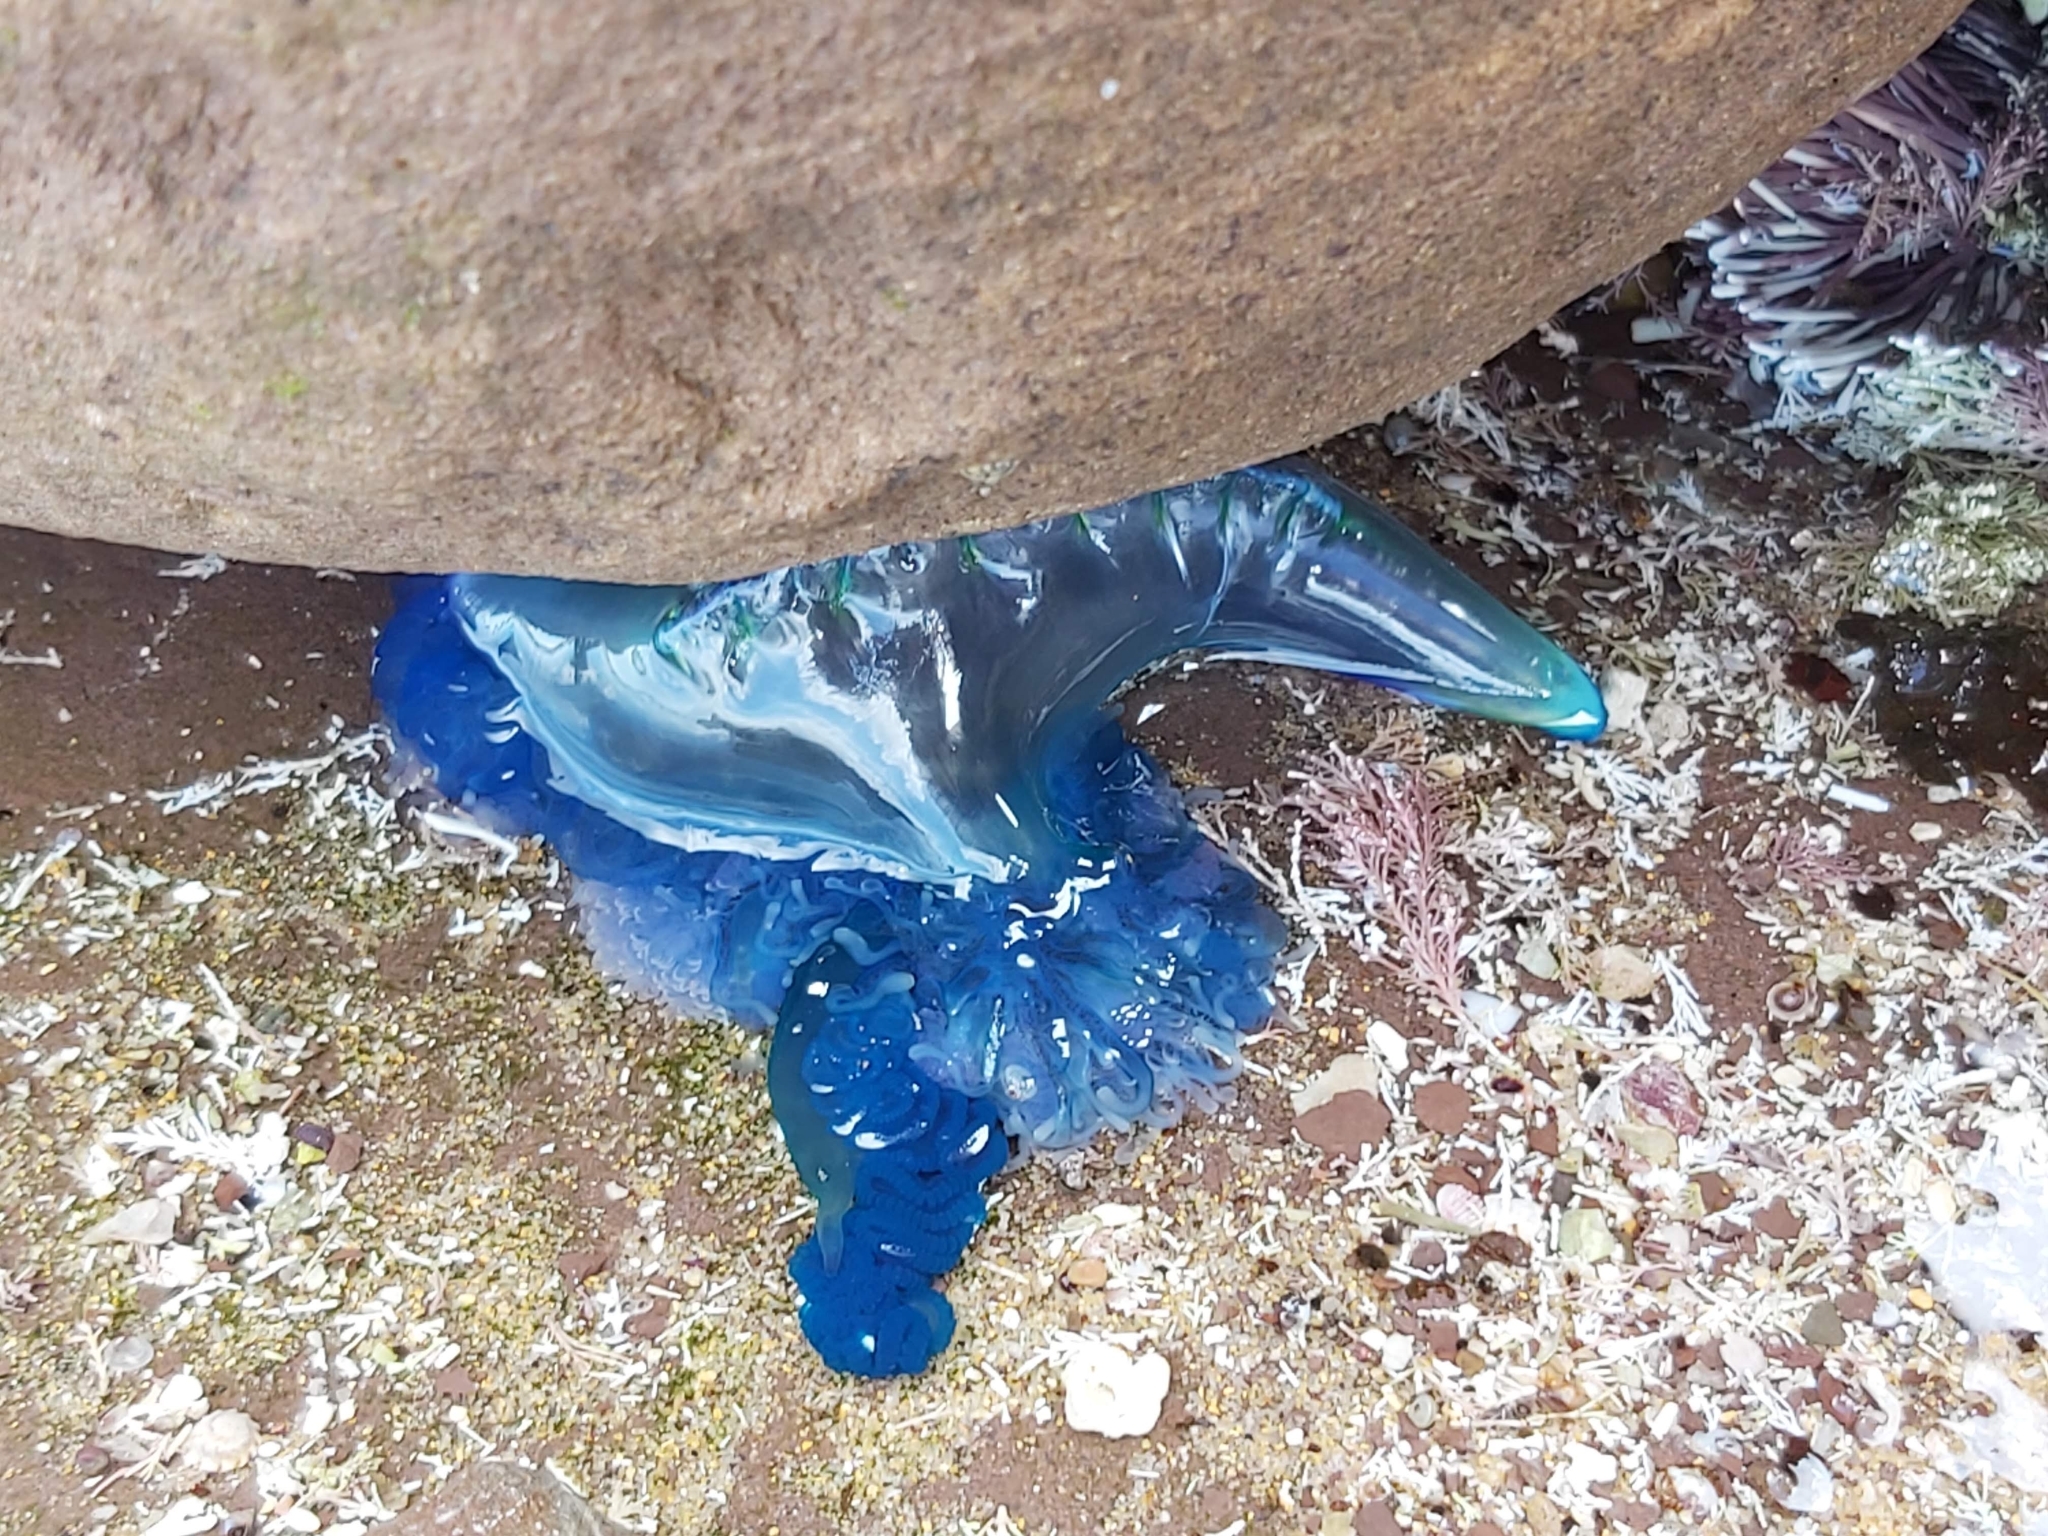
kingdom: Animalia
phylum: Cnidaria
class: Hydrozoa
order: Siphonophorae
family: Physaliidae
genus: Physalia
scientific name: Physalia physalis
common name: Portuguese man-of-war
